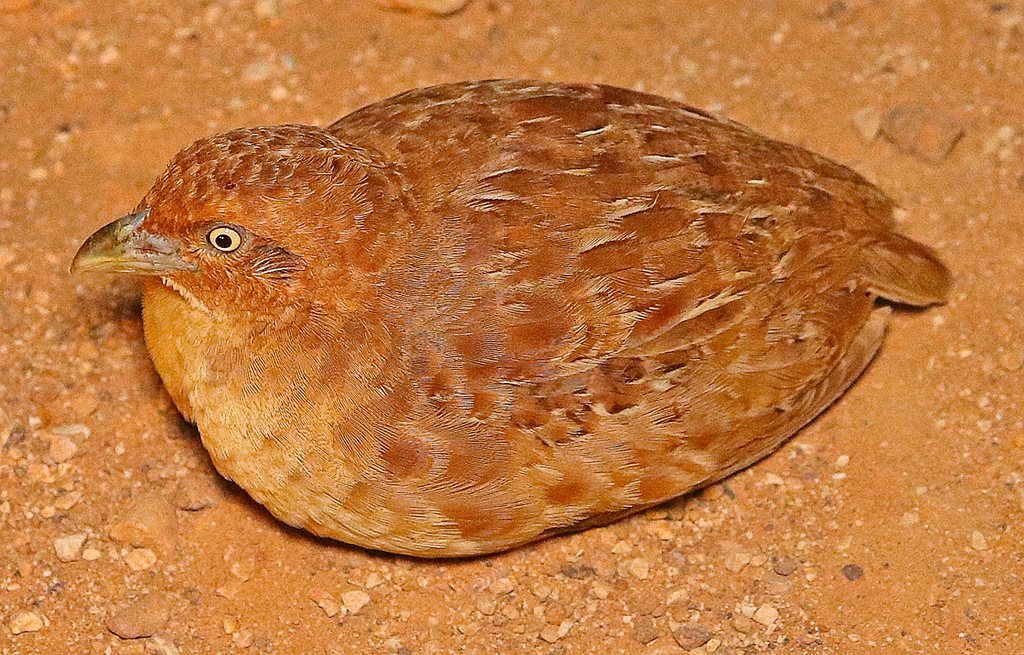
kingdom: Animalia
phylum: Chordata
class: Aves
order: Charadriiformes
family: Turnicidae
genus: Turnix
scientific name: Turnix velox
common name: Little buttonquail
